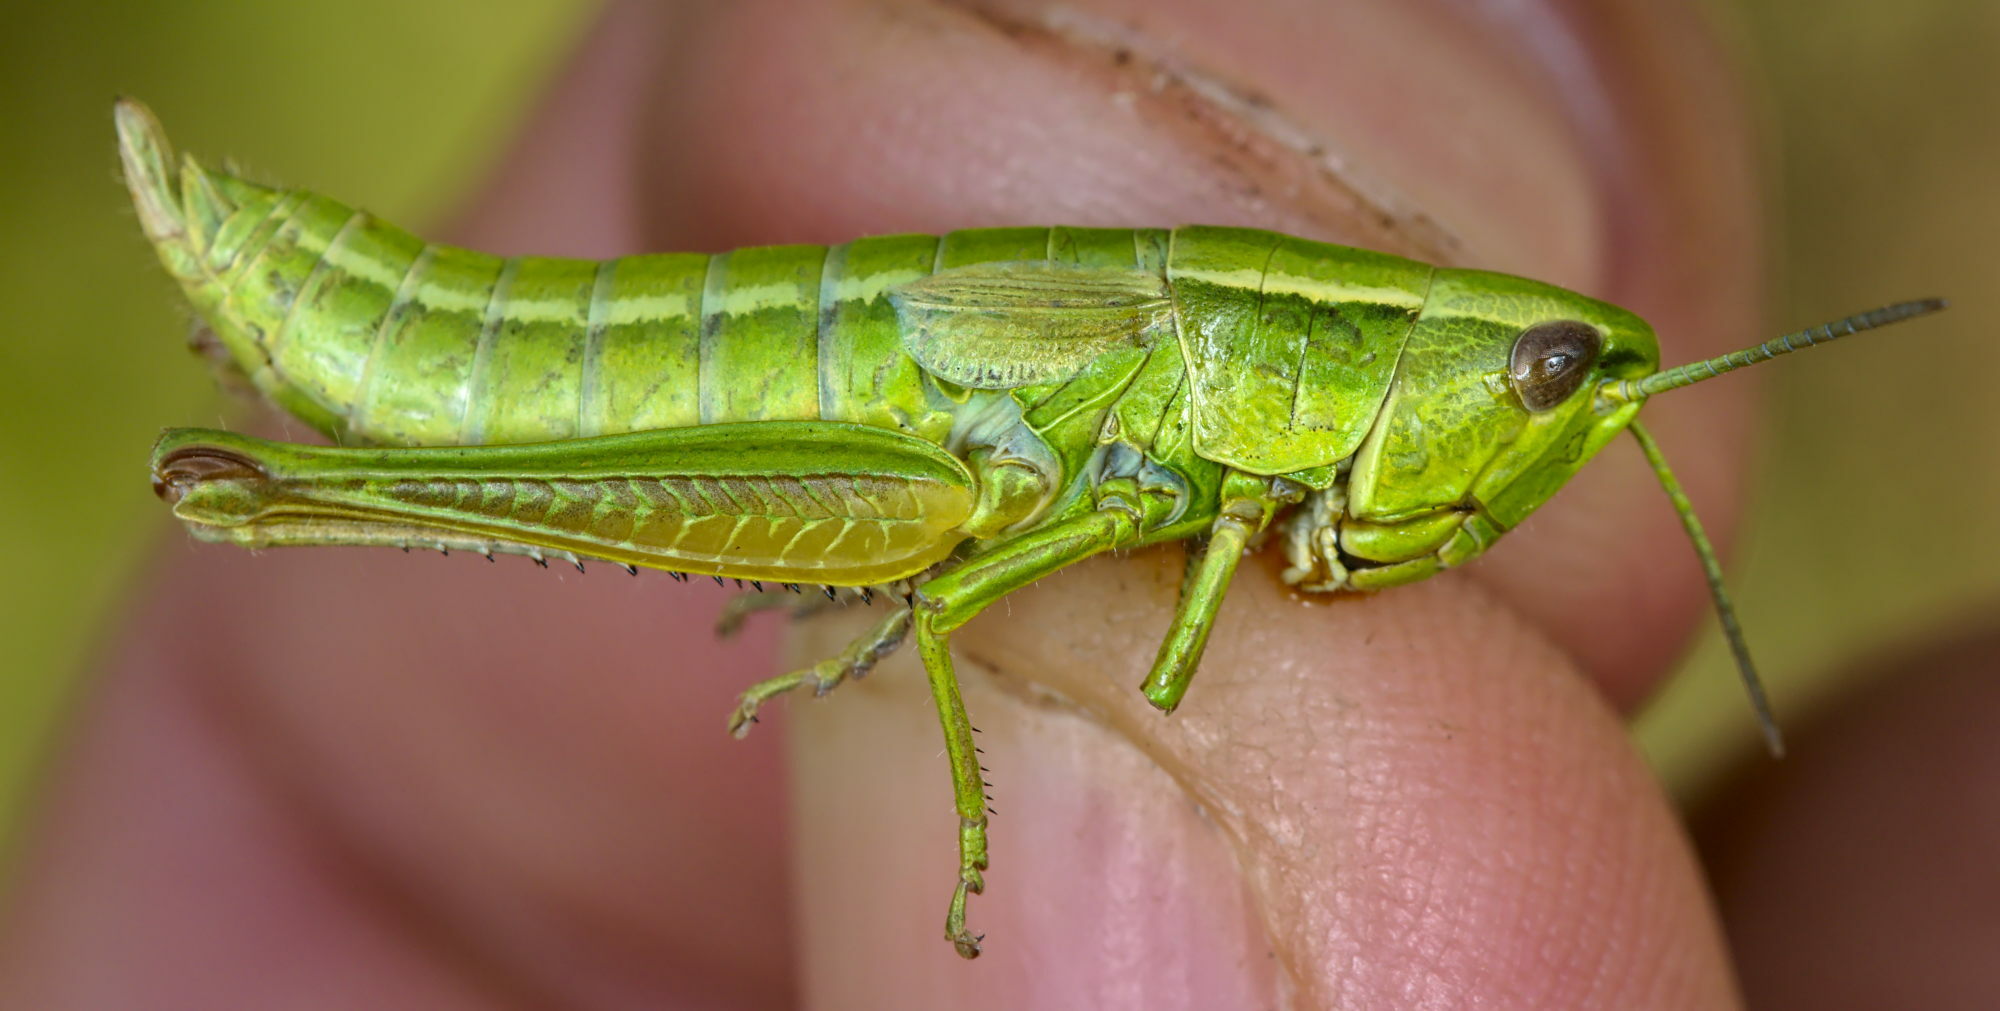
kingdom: Animalia
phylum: Arthropoda
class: Insecta
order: Orthoptera
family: Acrididae
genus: Euthystira
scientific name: Euthystira brachyptera
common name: Small gold grasshopper
